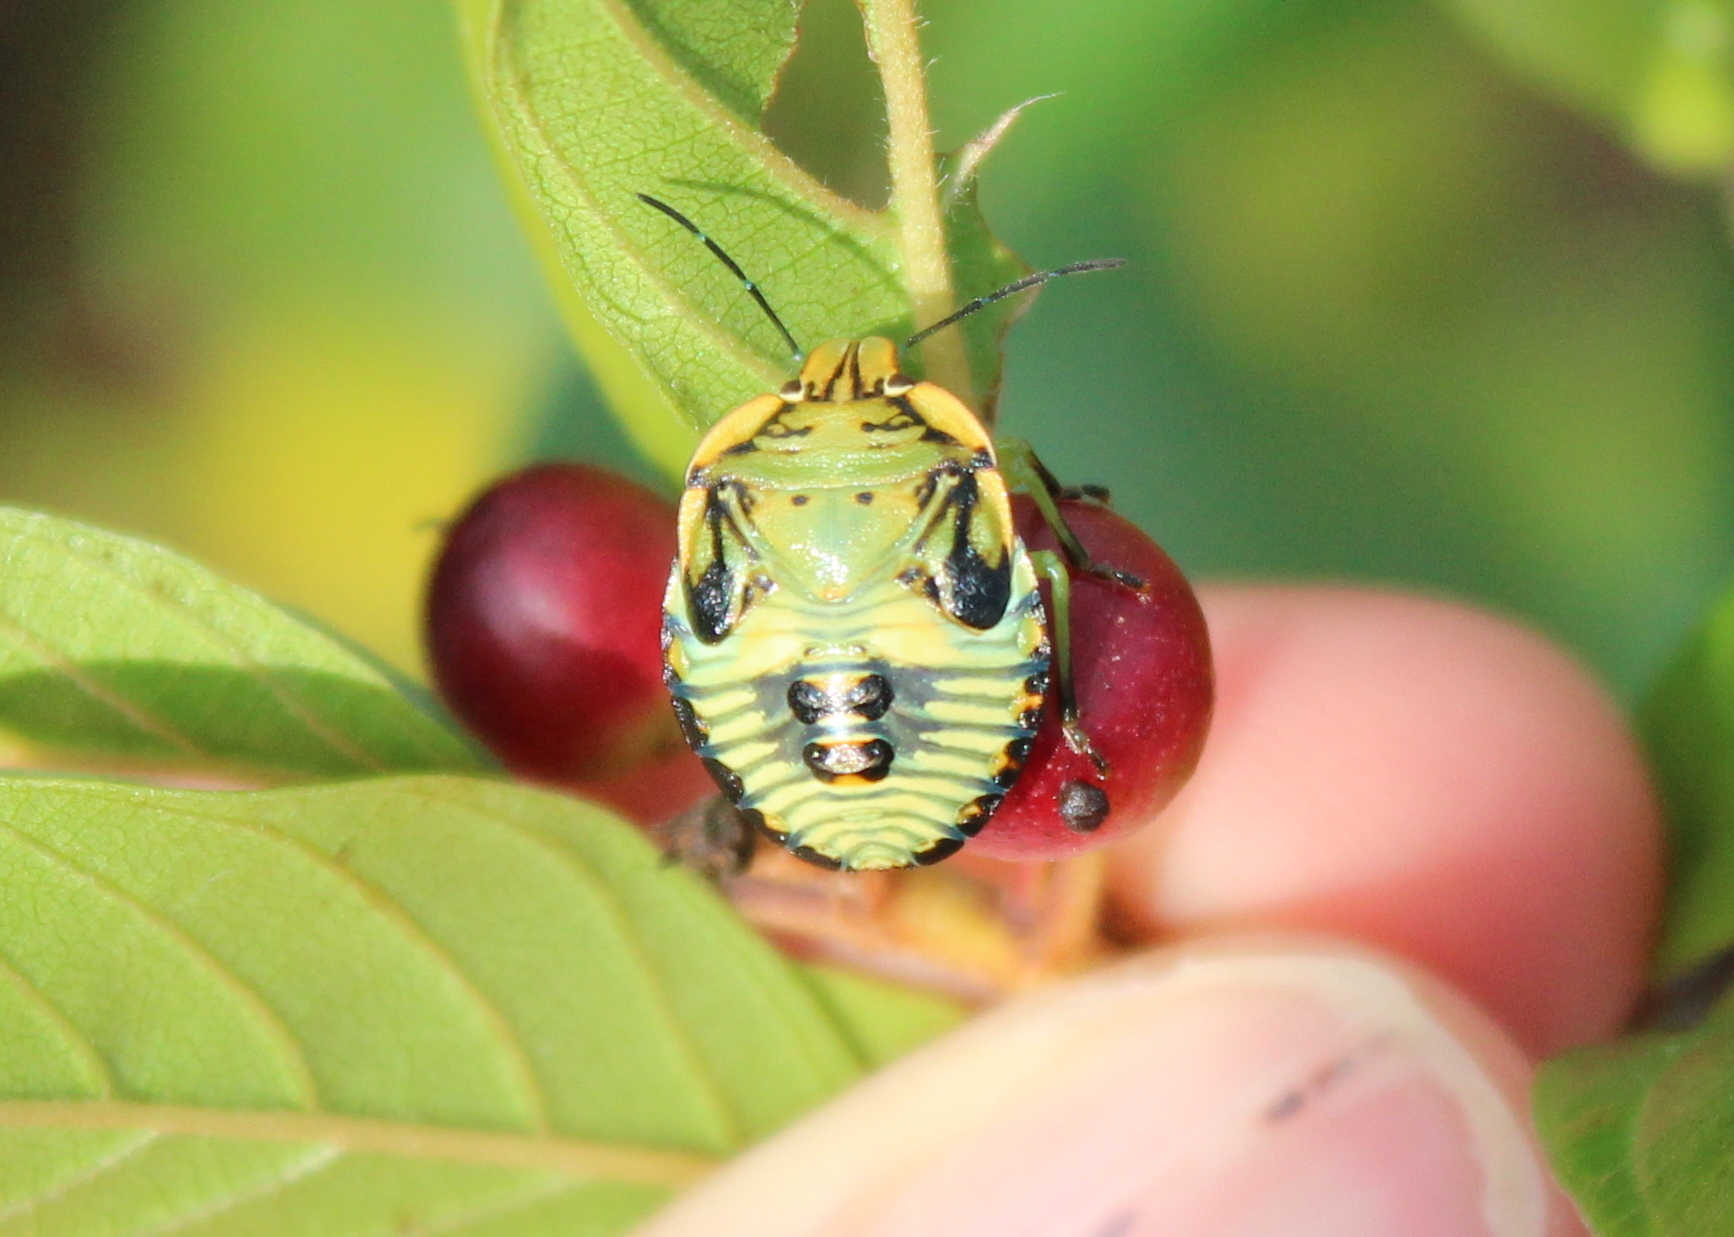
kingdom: Animalia
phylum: Arthropoda
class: Insecta
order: Hemiptera
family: Pentatomidae
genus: Chinavia
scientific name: Chinavia hilaris
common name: Green stink bug
